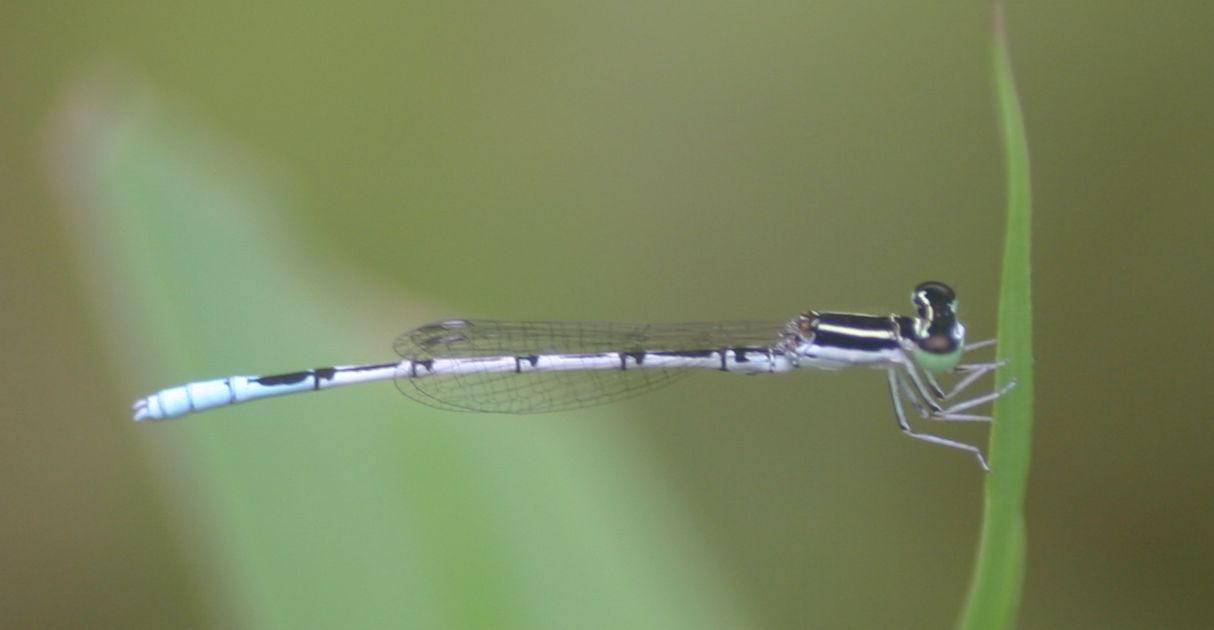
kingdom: Animalia
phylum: Arthropoda
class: Insecta
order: Odonata
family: Coenagrionidae
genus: Agriocnemis
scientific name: Agriocnemis pieris
